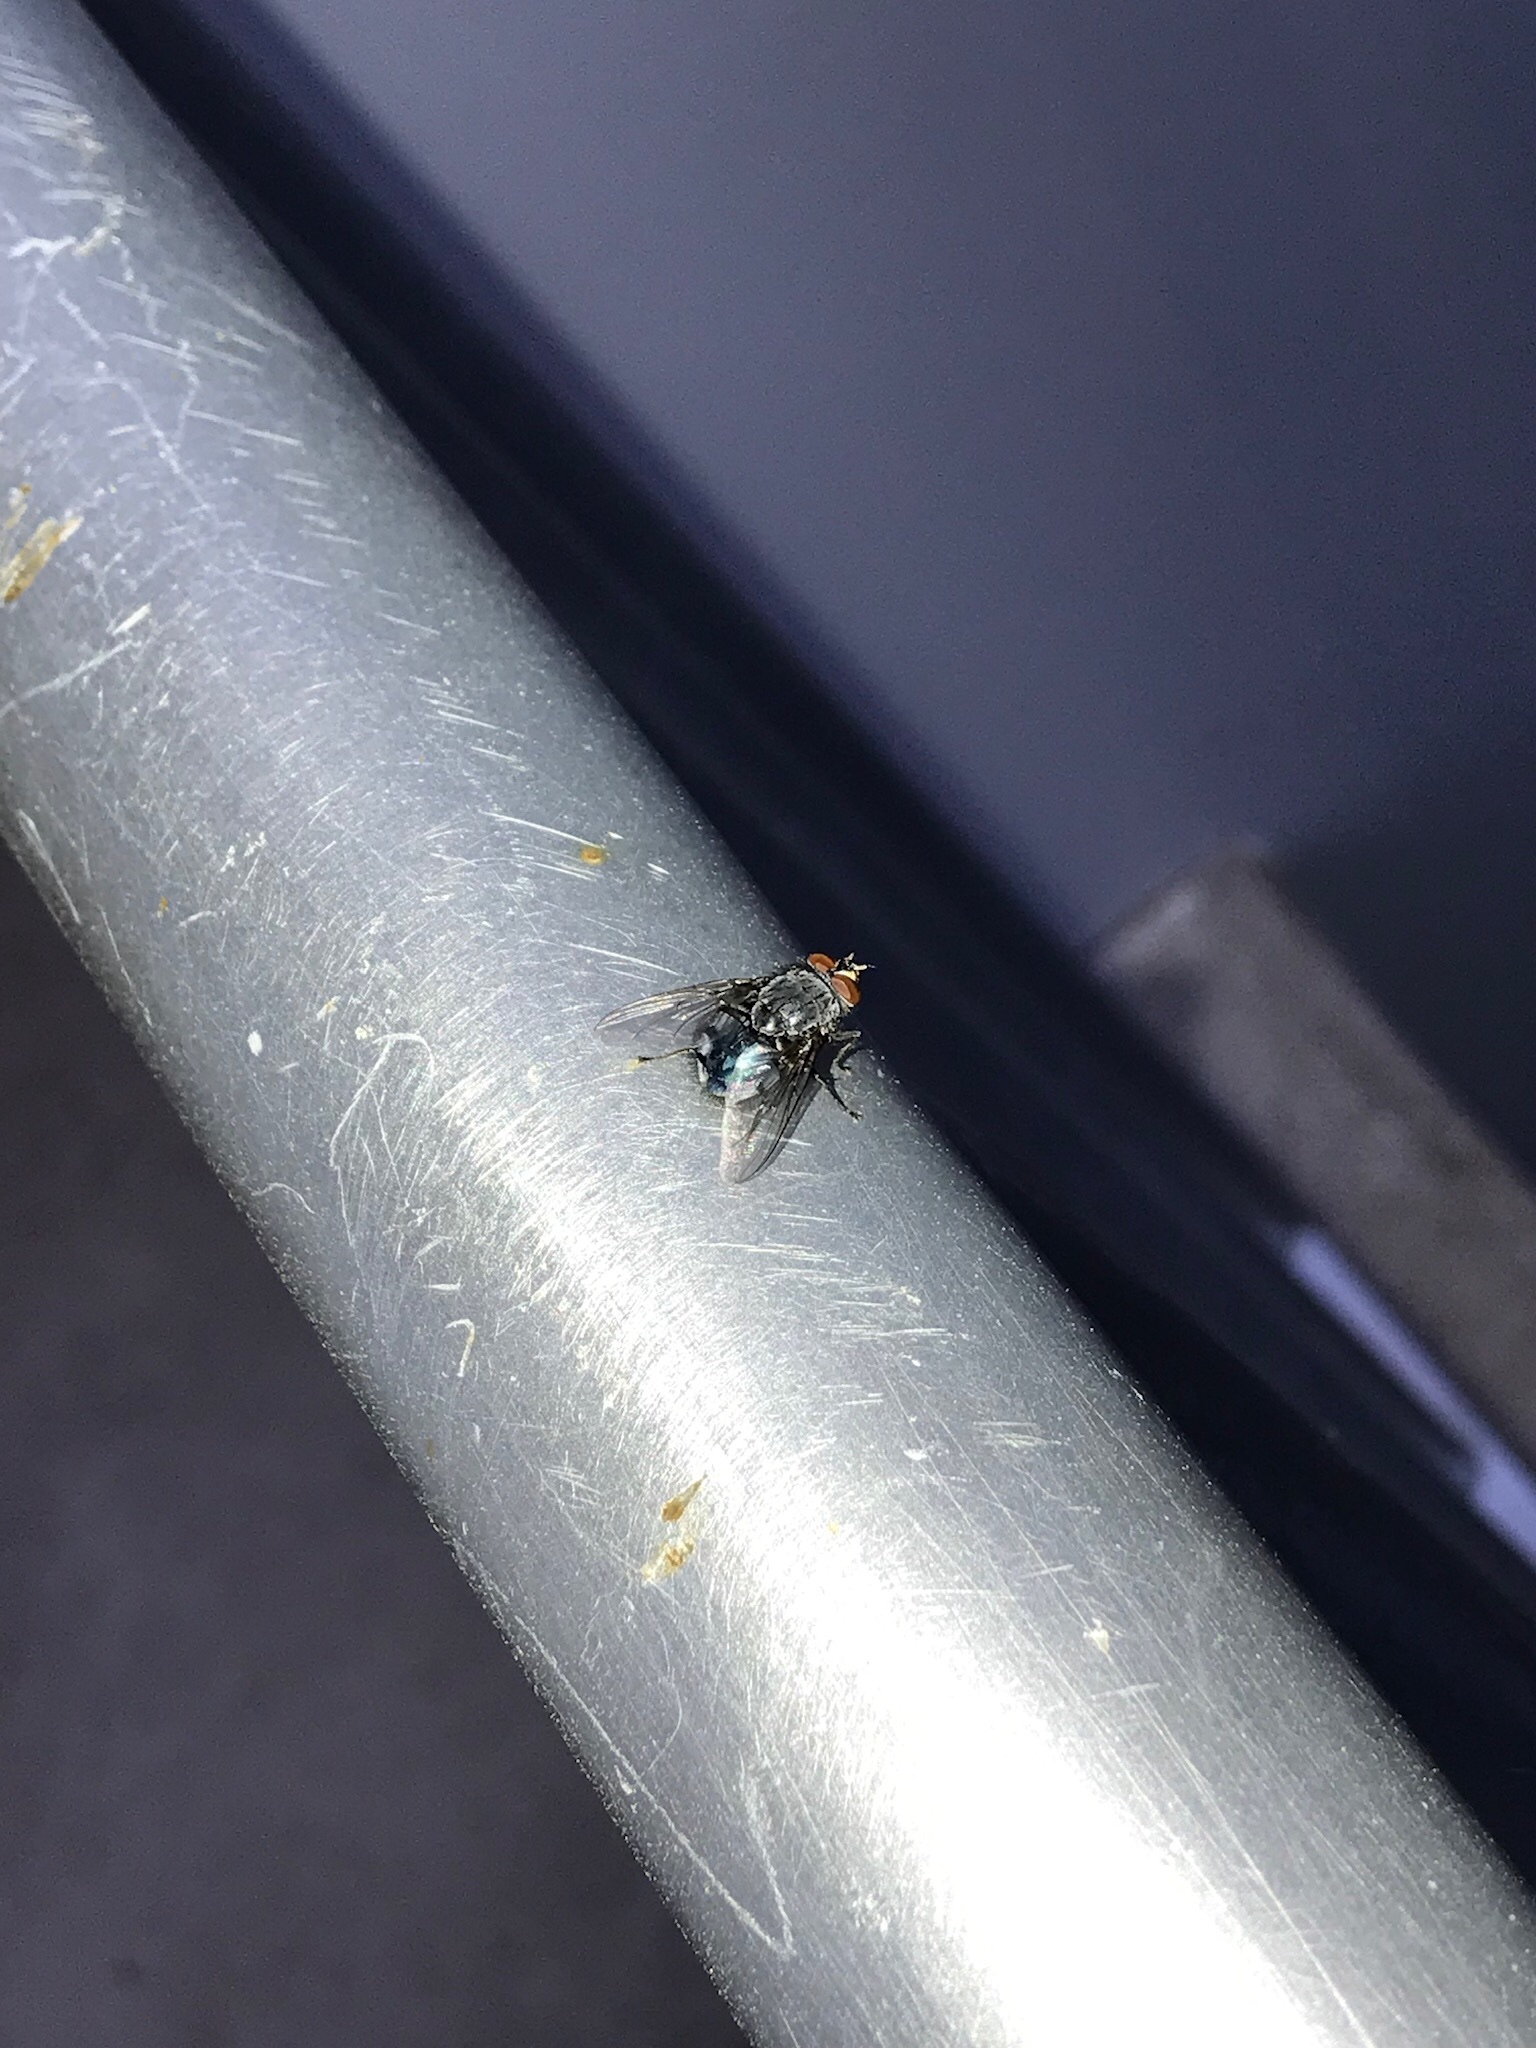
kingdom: Animalia
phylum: Arthropoda
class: Insecta
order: Diptera
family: Calliphoridae
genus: Calliphora
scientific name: Calliphora vicina
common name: Common blow flie
